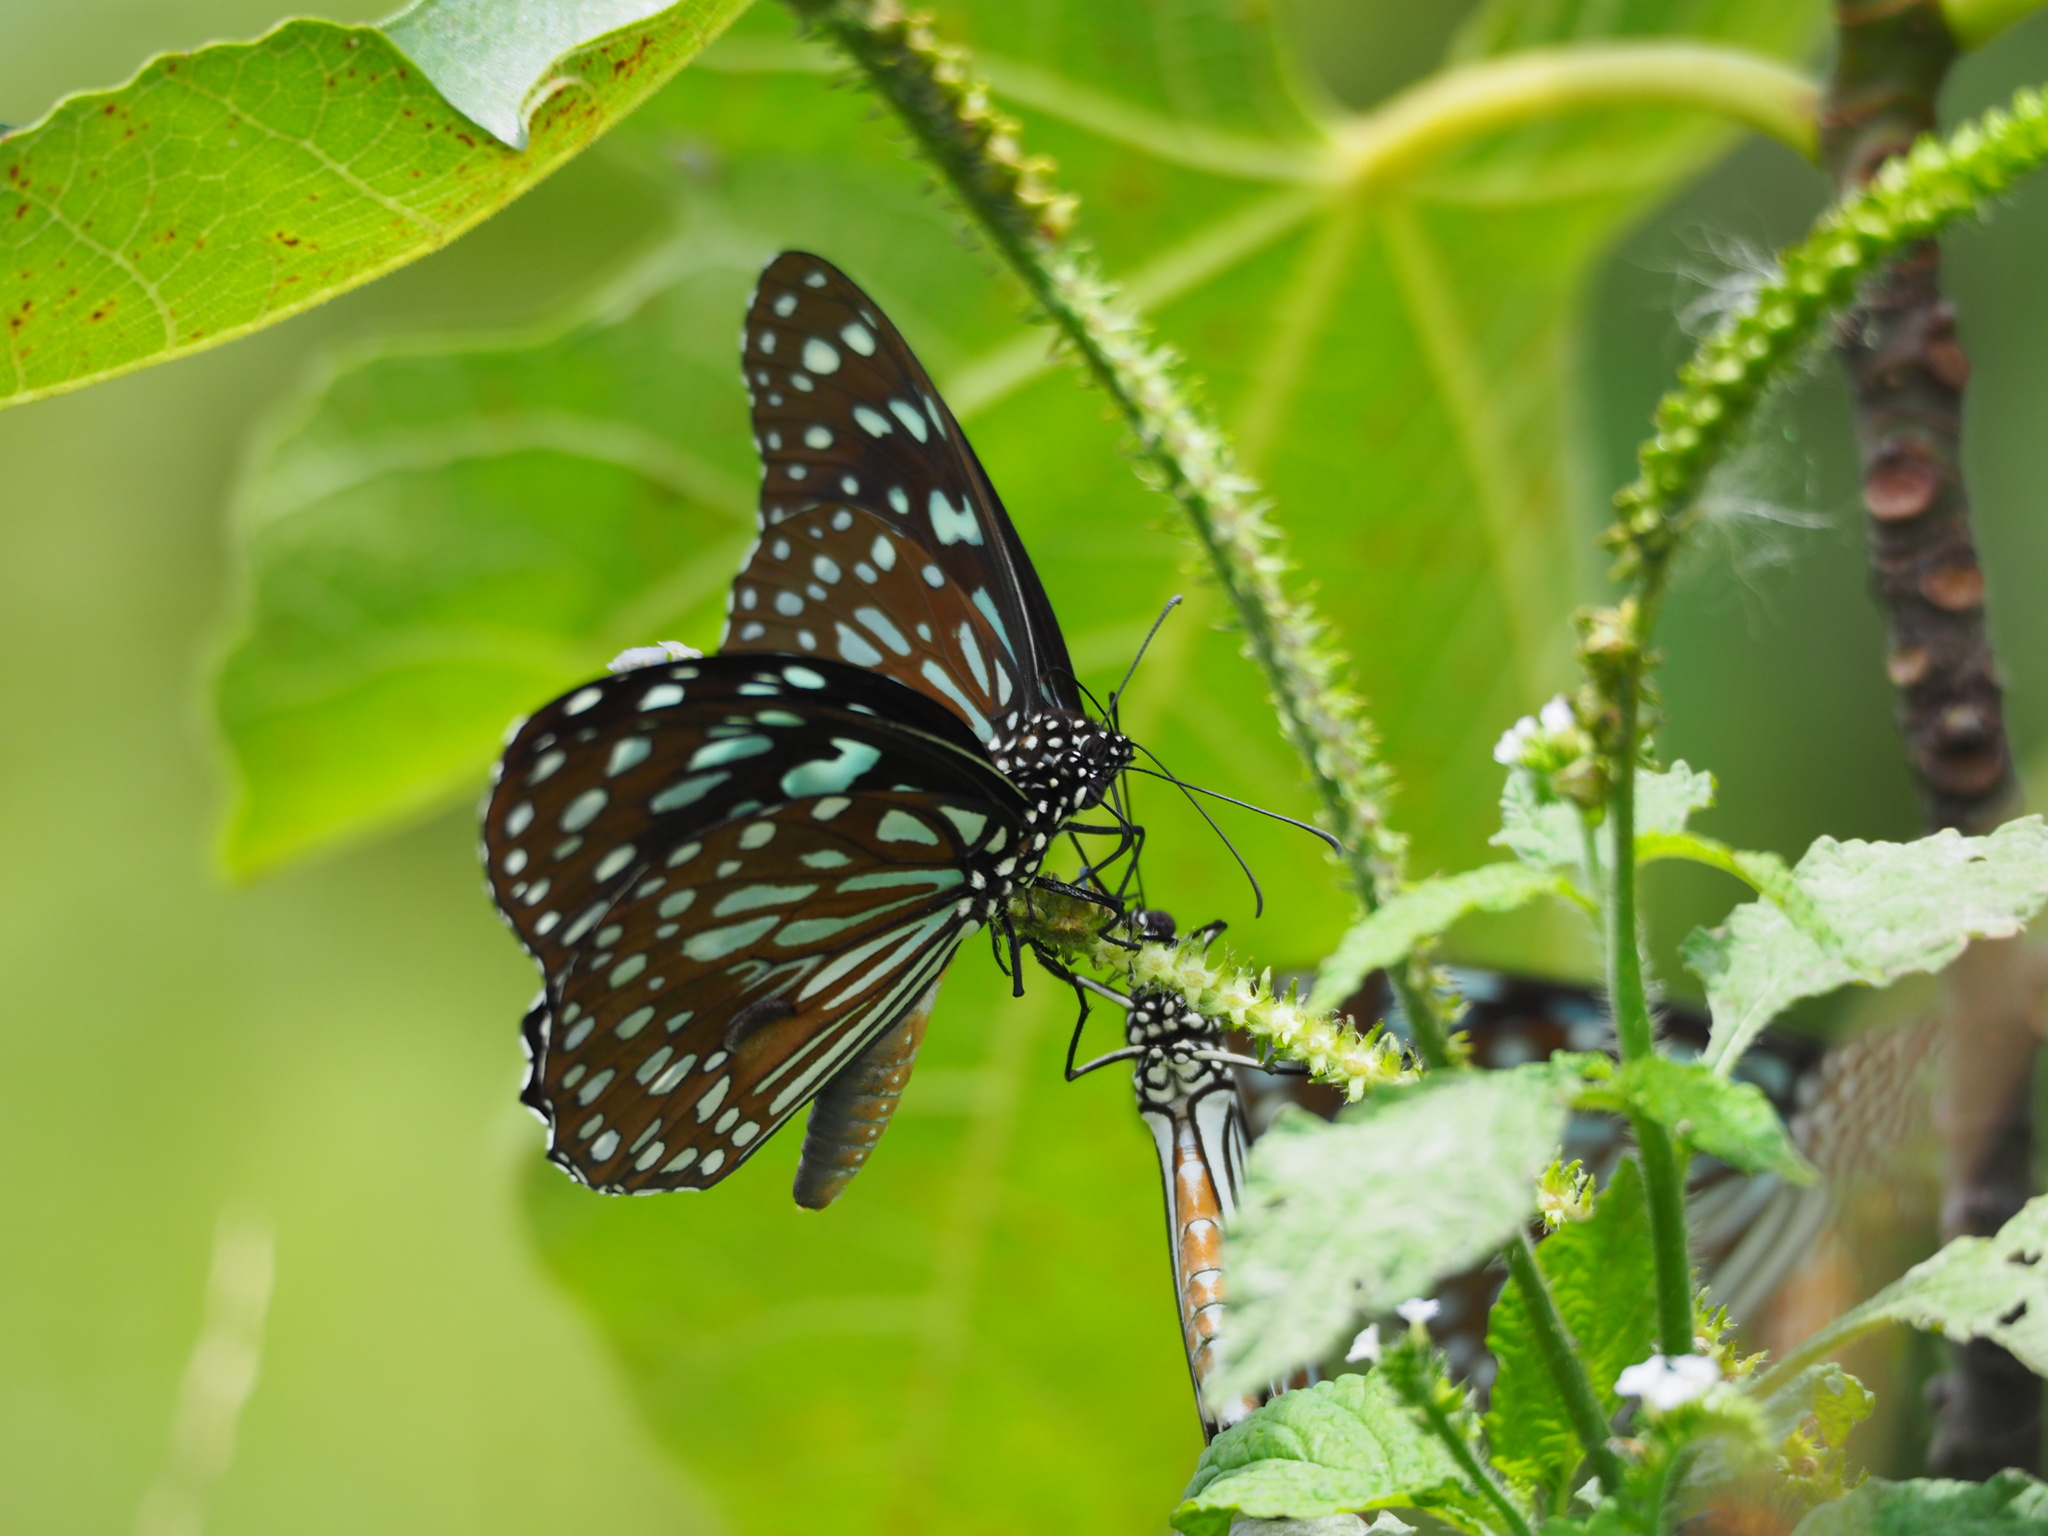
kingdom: Animalia
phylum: Arthropoda
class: Insecta
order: Lepidoptera
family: Nymphalidae
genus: Tirumala
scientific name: Tirumala limniace
